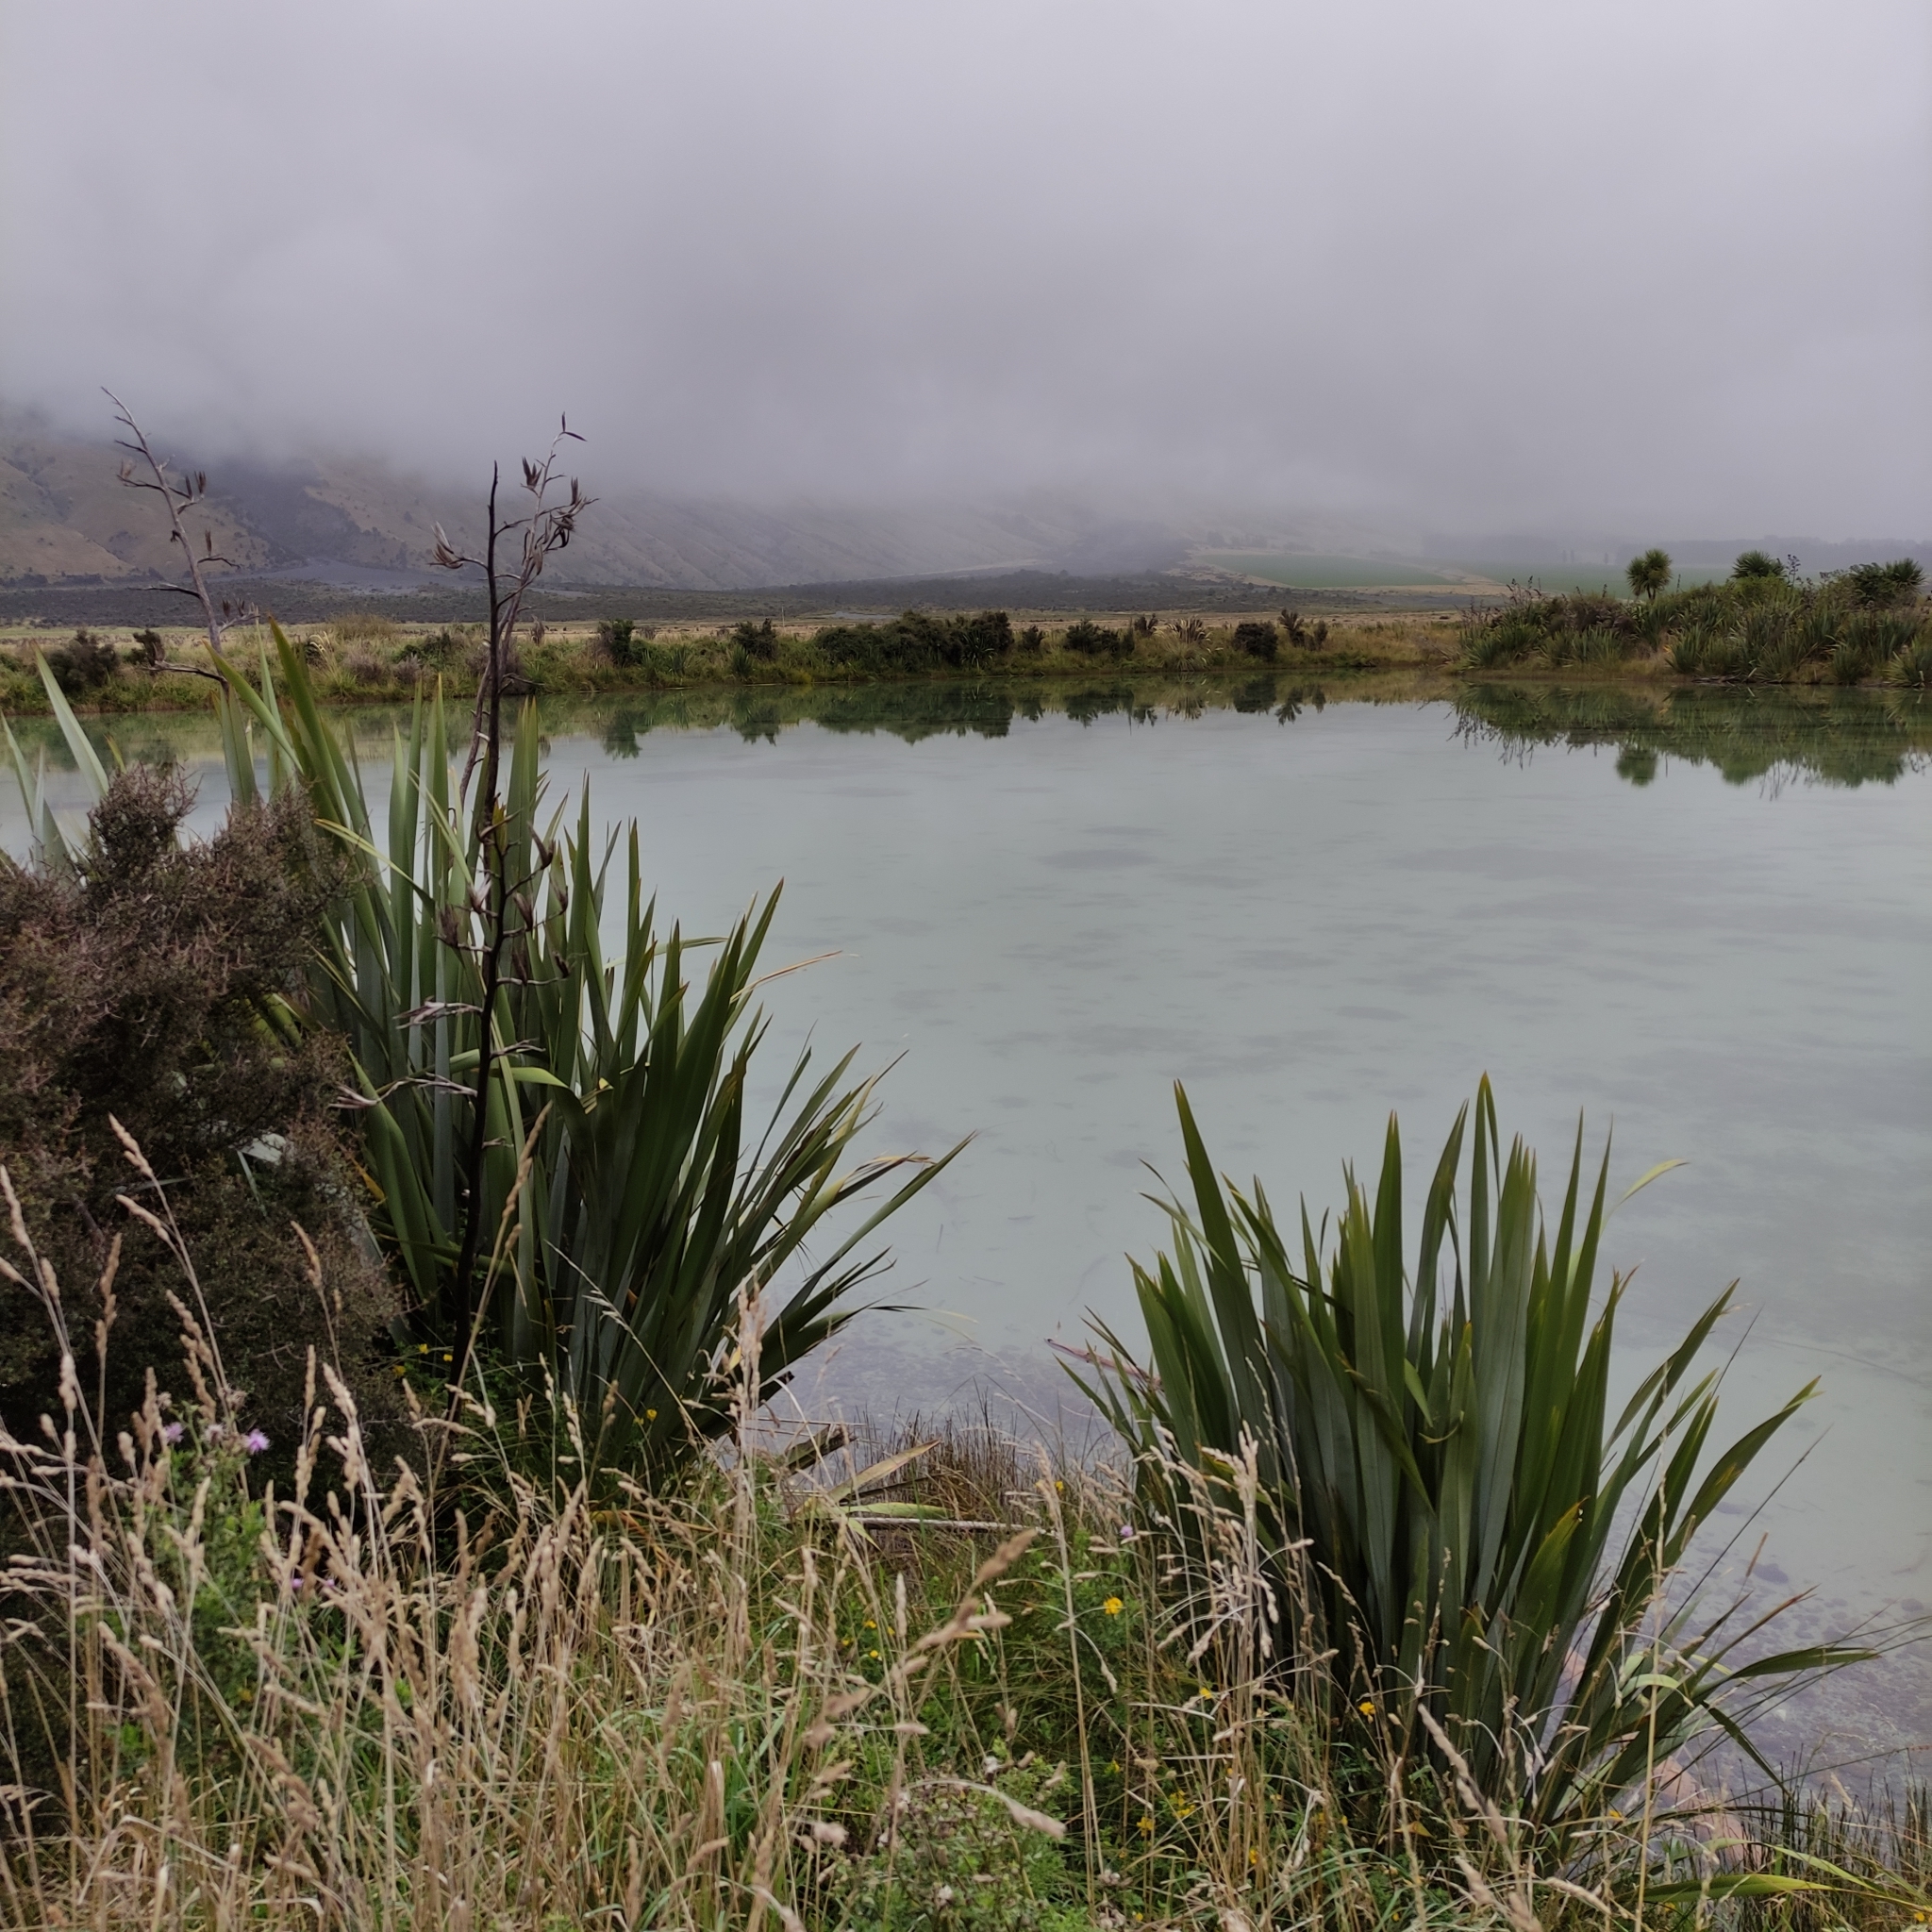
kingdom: Plantae
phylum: Tracheophyta
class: Liliopsida
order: Asparagales
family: Asphodelaceae
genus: Phormium
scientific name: Phormium tenax
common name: New zealand flax
